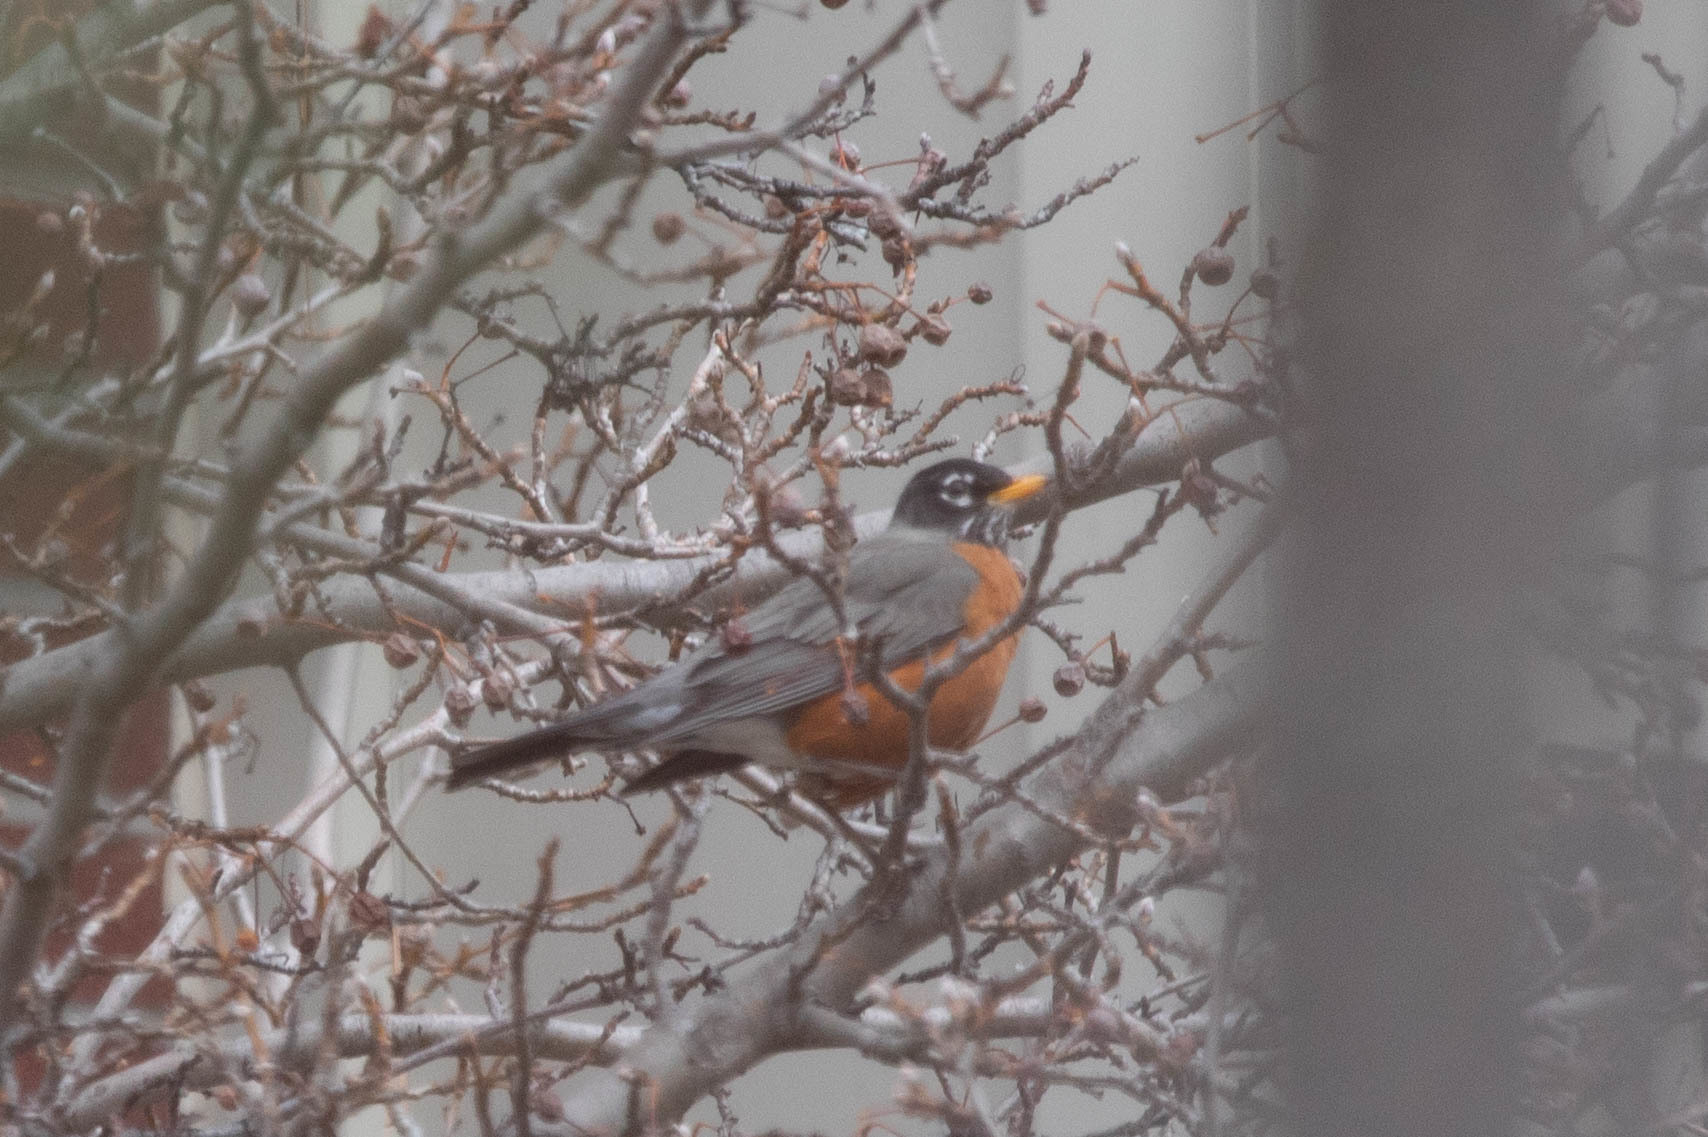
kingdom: Animalia
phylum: Chordata
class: Aves
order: Passeriformes
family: Turdidae
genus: Turdus
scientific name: Turdus migratorius
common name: American robin
